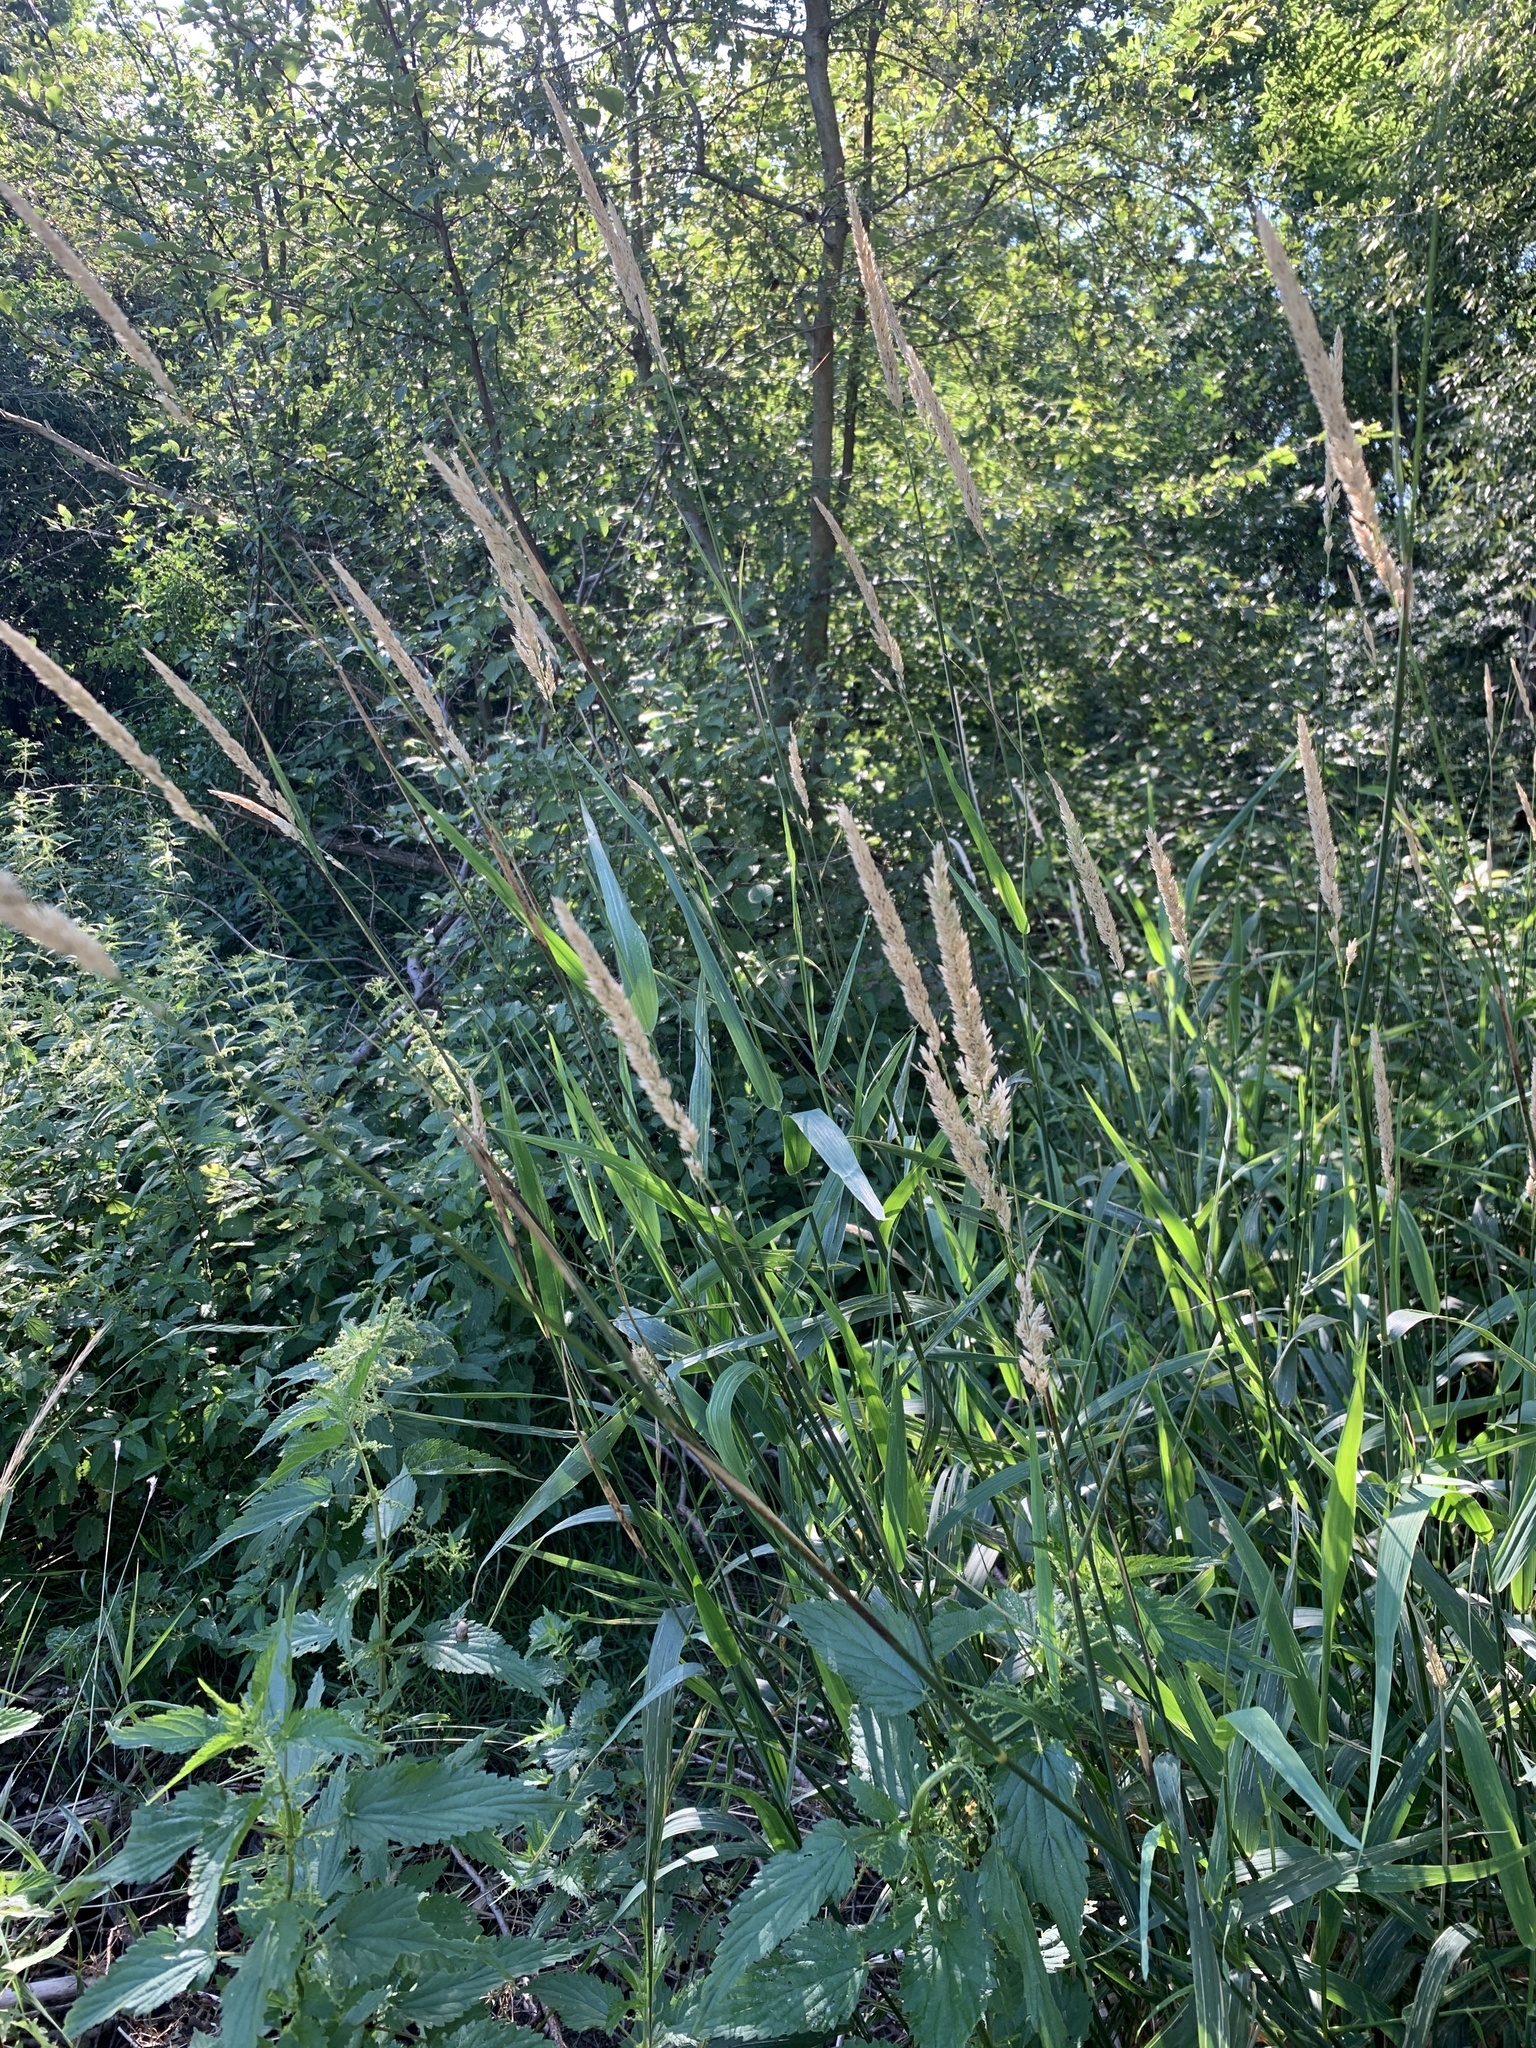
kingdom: Plantae
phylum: Tracheophyta
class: Liliopsida
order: Poales
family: Poaceae
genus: Phalaris
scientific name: Phalaris arundinacea
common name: Reed canary-grass
